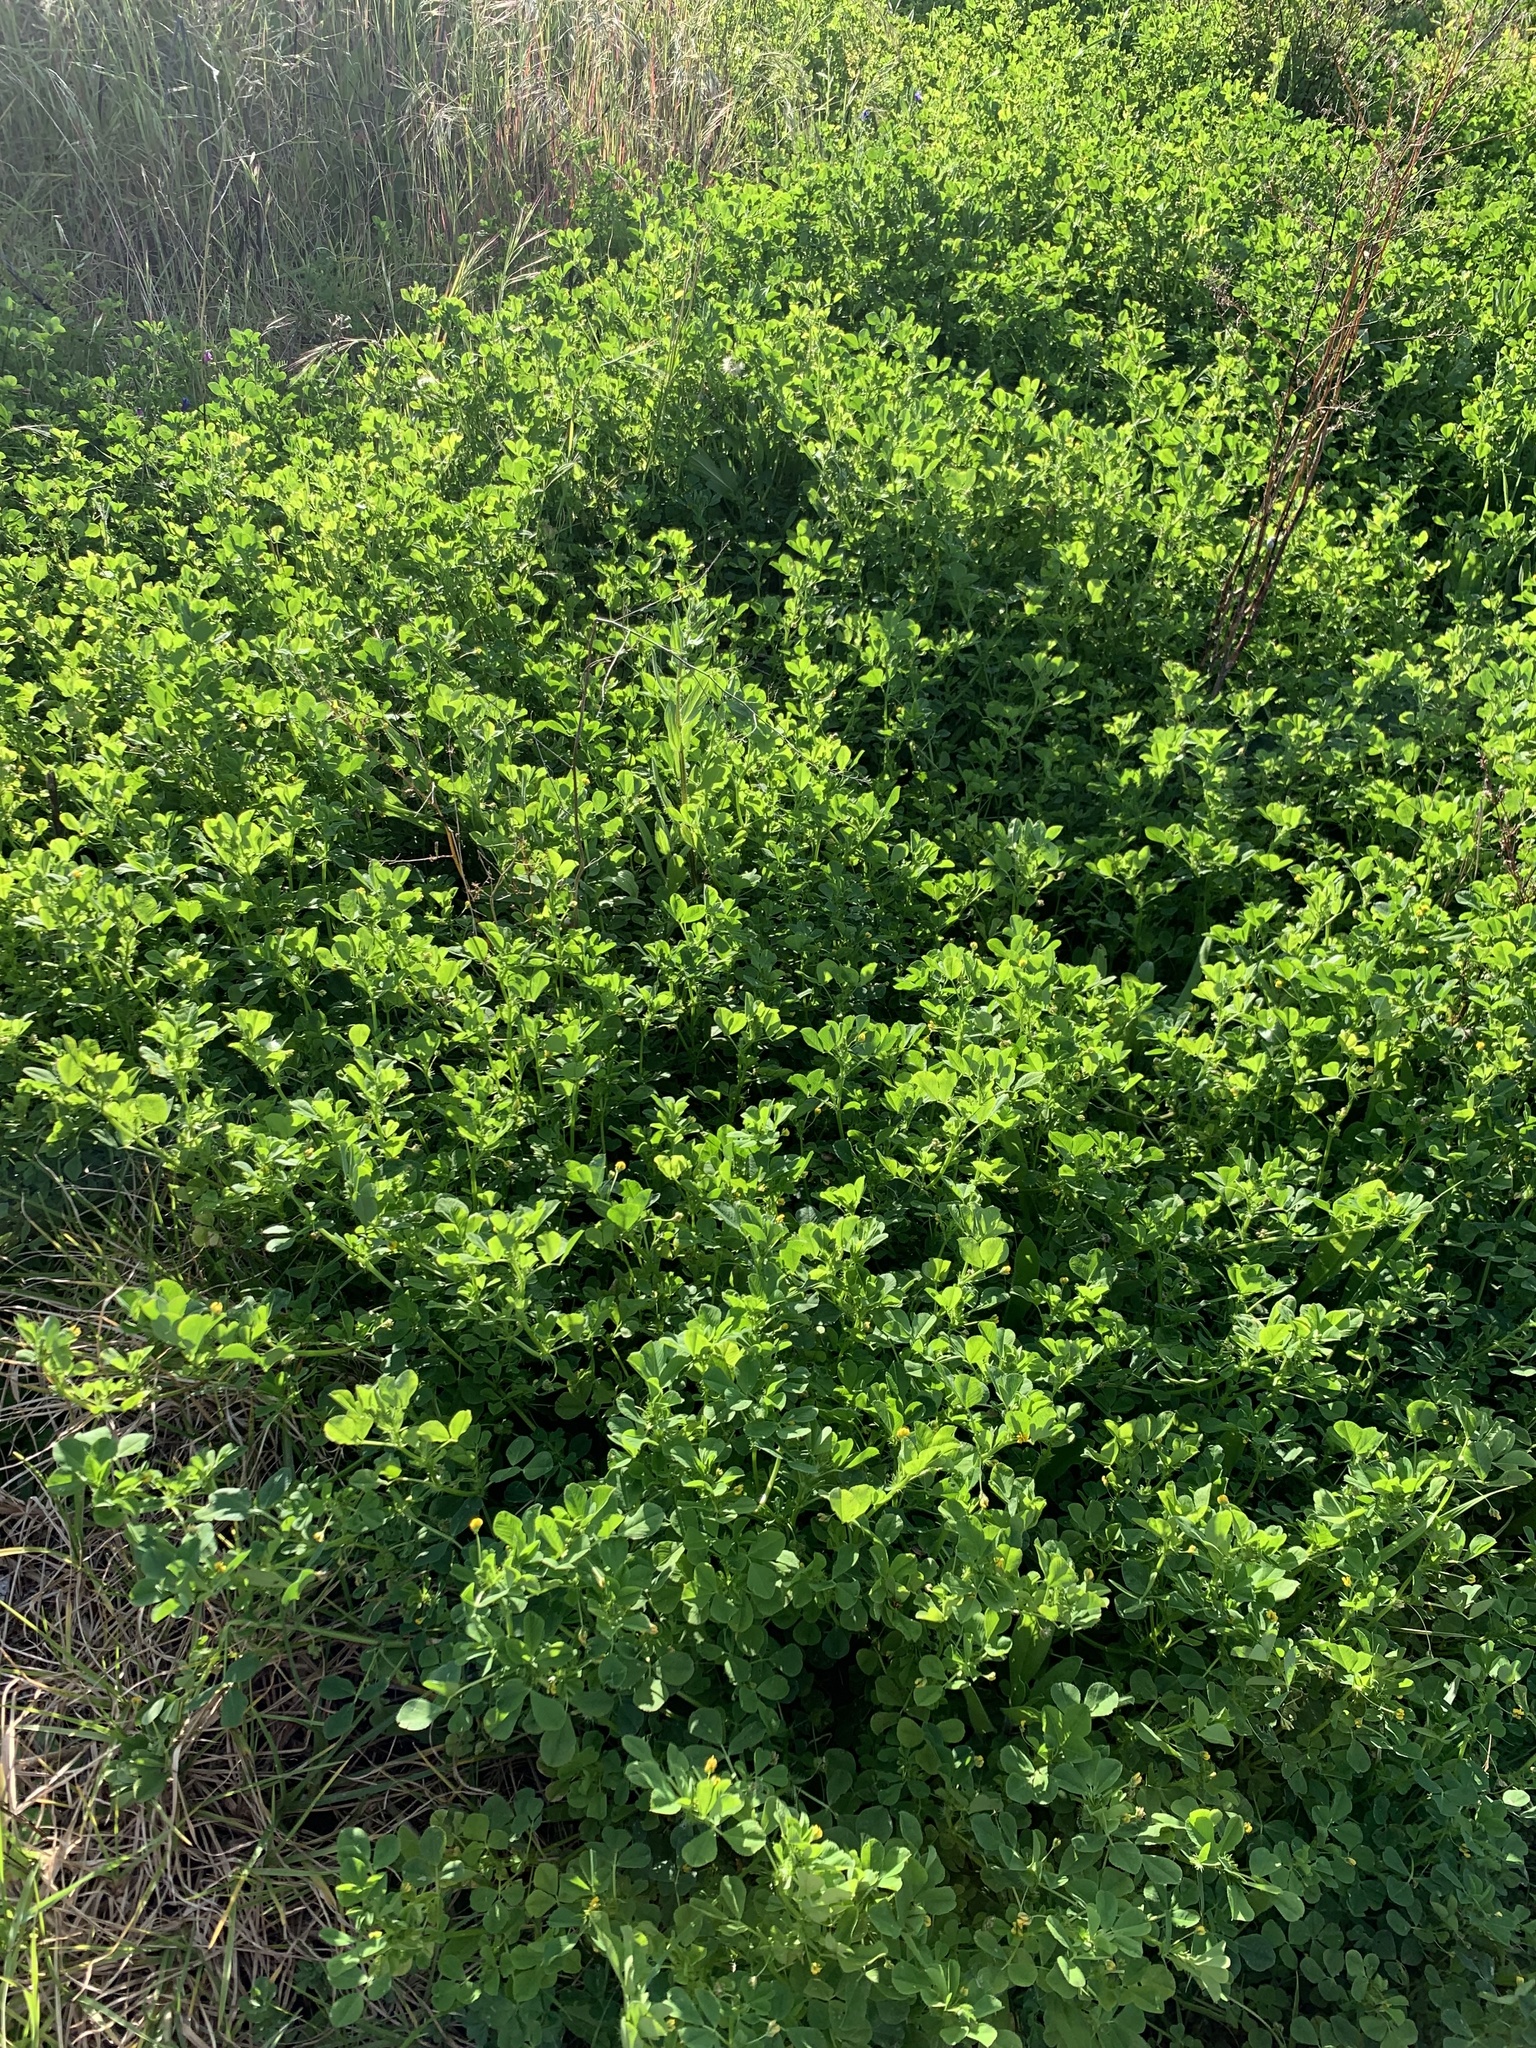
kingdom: Plantae
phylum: Tracheophyta
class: Magnoliopsida
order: Fabales
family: Fabaceae
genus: Medicago
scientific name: Medicago polymorpha
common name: Burclover
